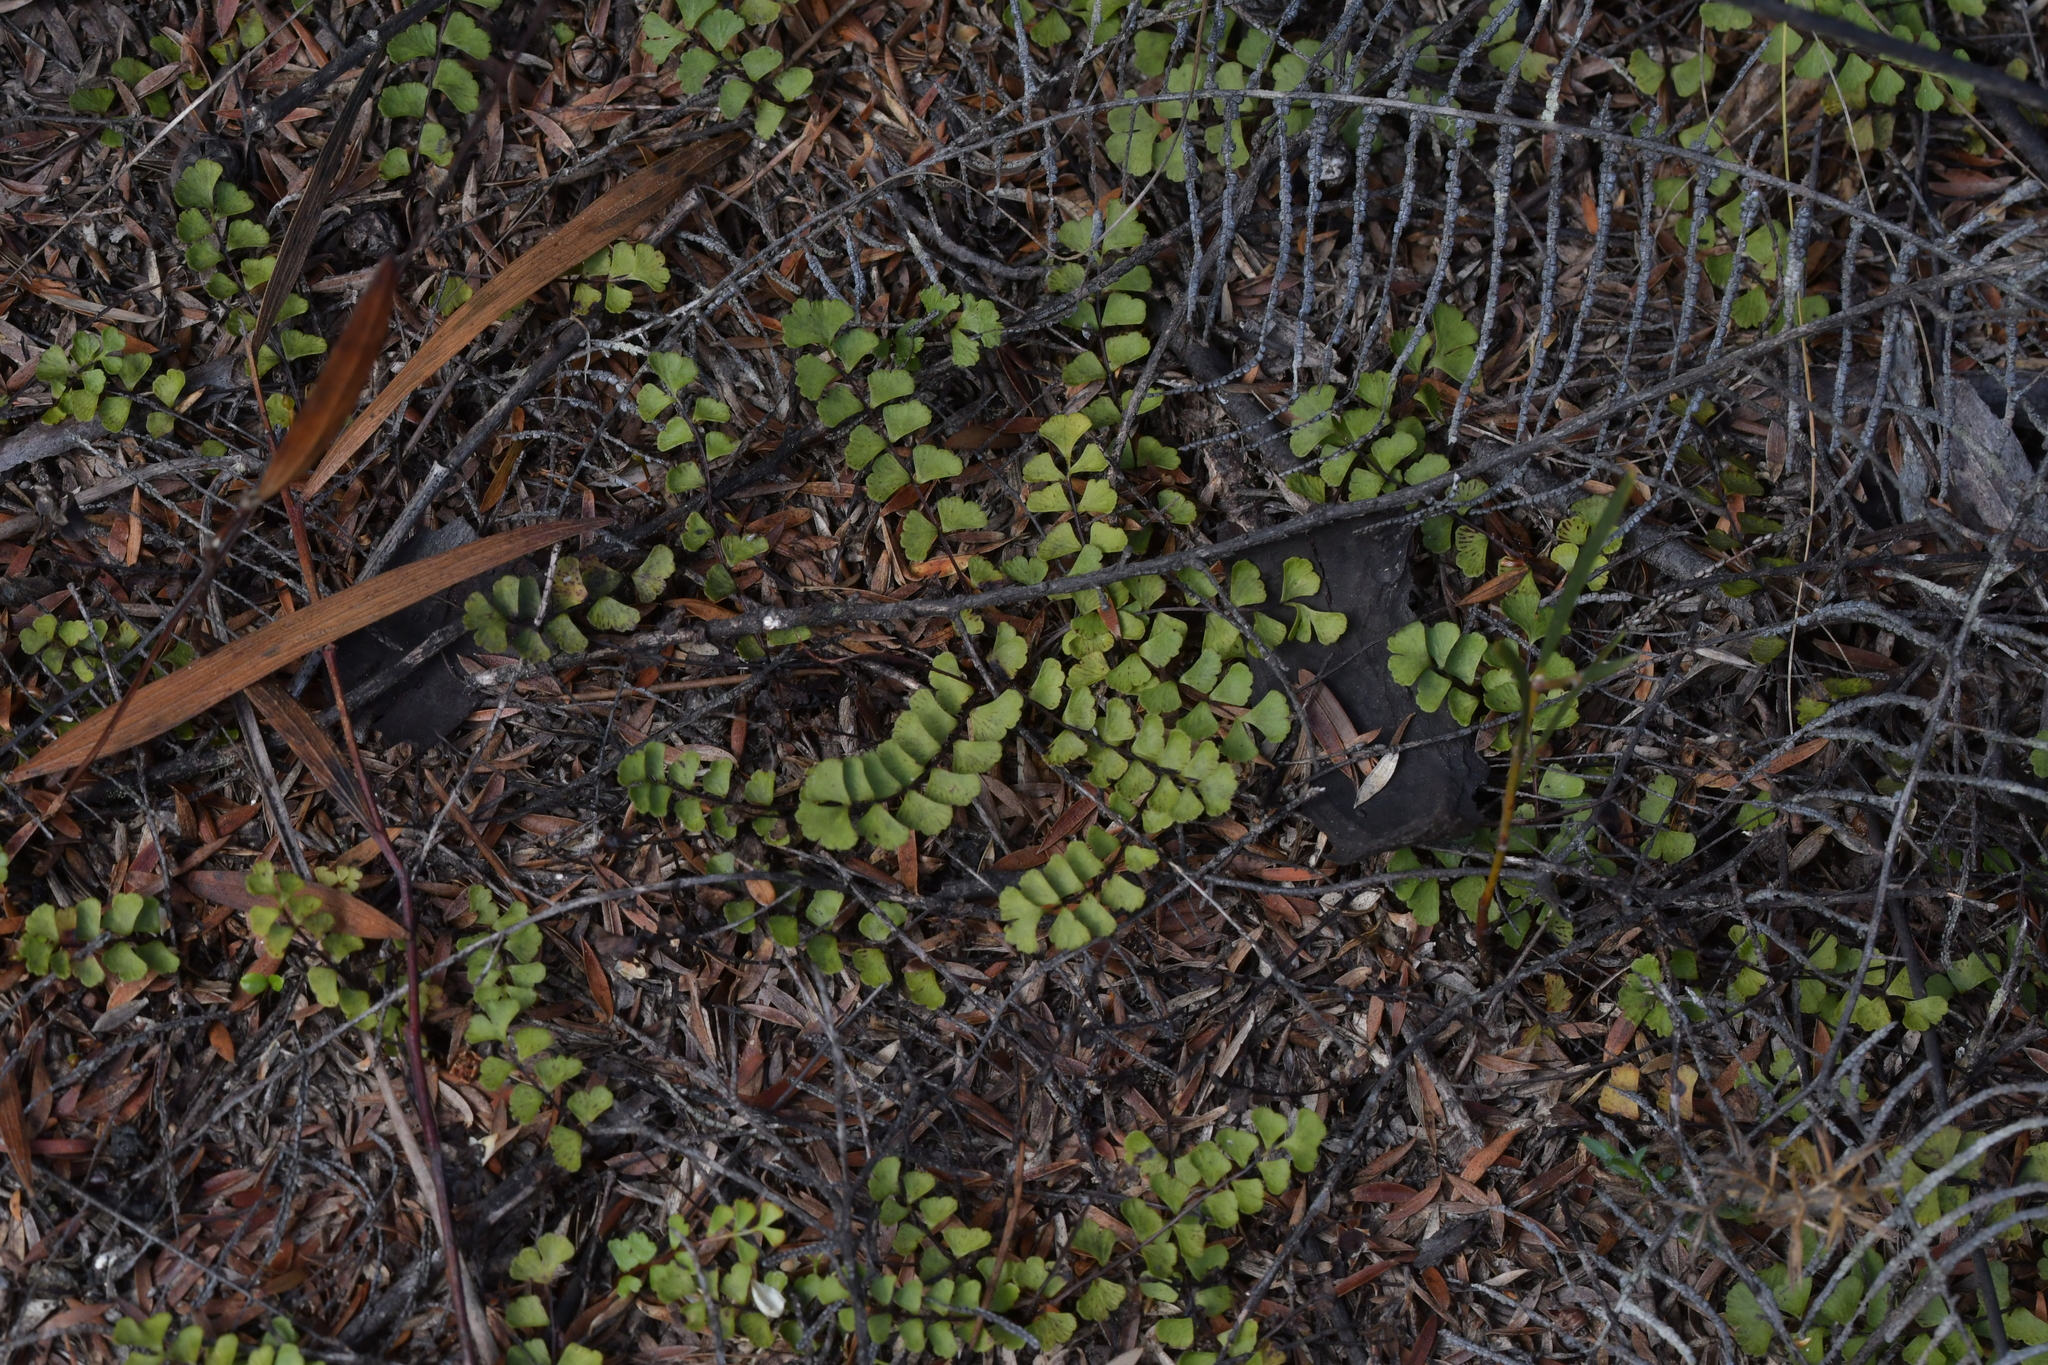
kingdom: Plantae
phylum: Tracheophyta
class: Polypodiopsida
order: Polypodiales
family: Lindsaeaceae
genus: Lindsaea
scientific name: Lindsaea linearis
